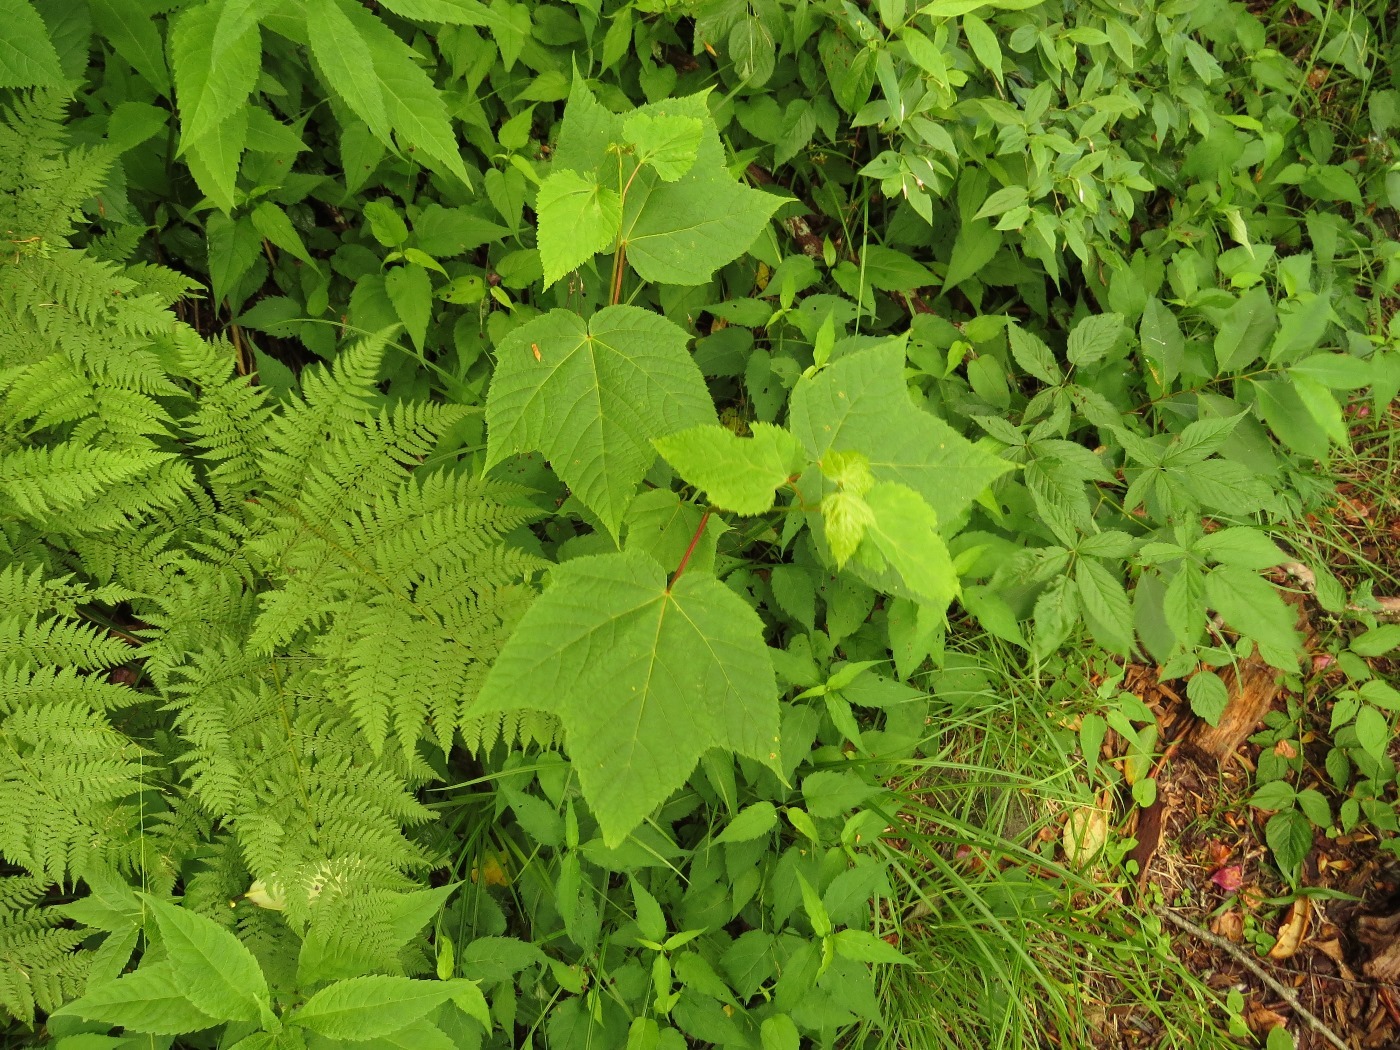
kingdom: Plantae
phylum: Tracheophyta
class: Magnoliopsida
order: Sapindales
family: Sapindaceae
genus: Acer
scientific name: Acer pensylvanicum
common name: Moosewood
